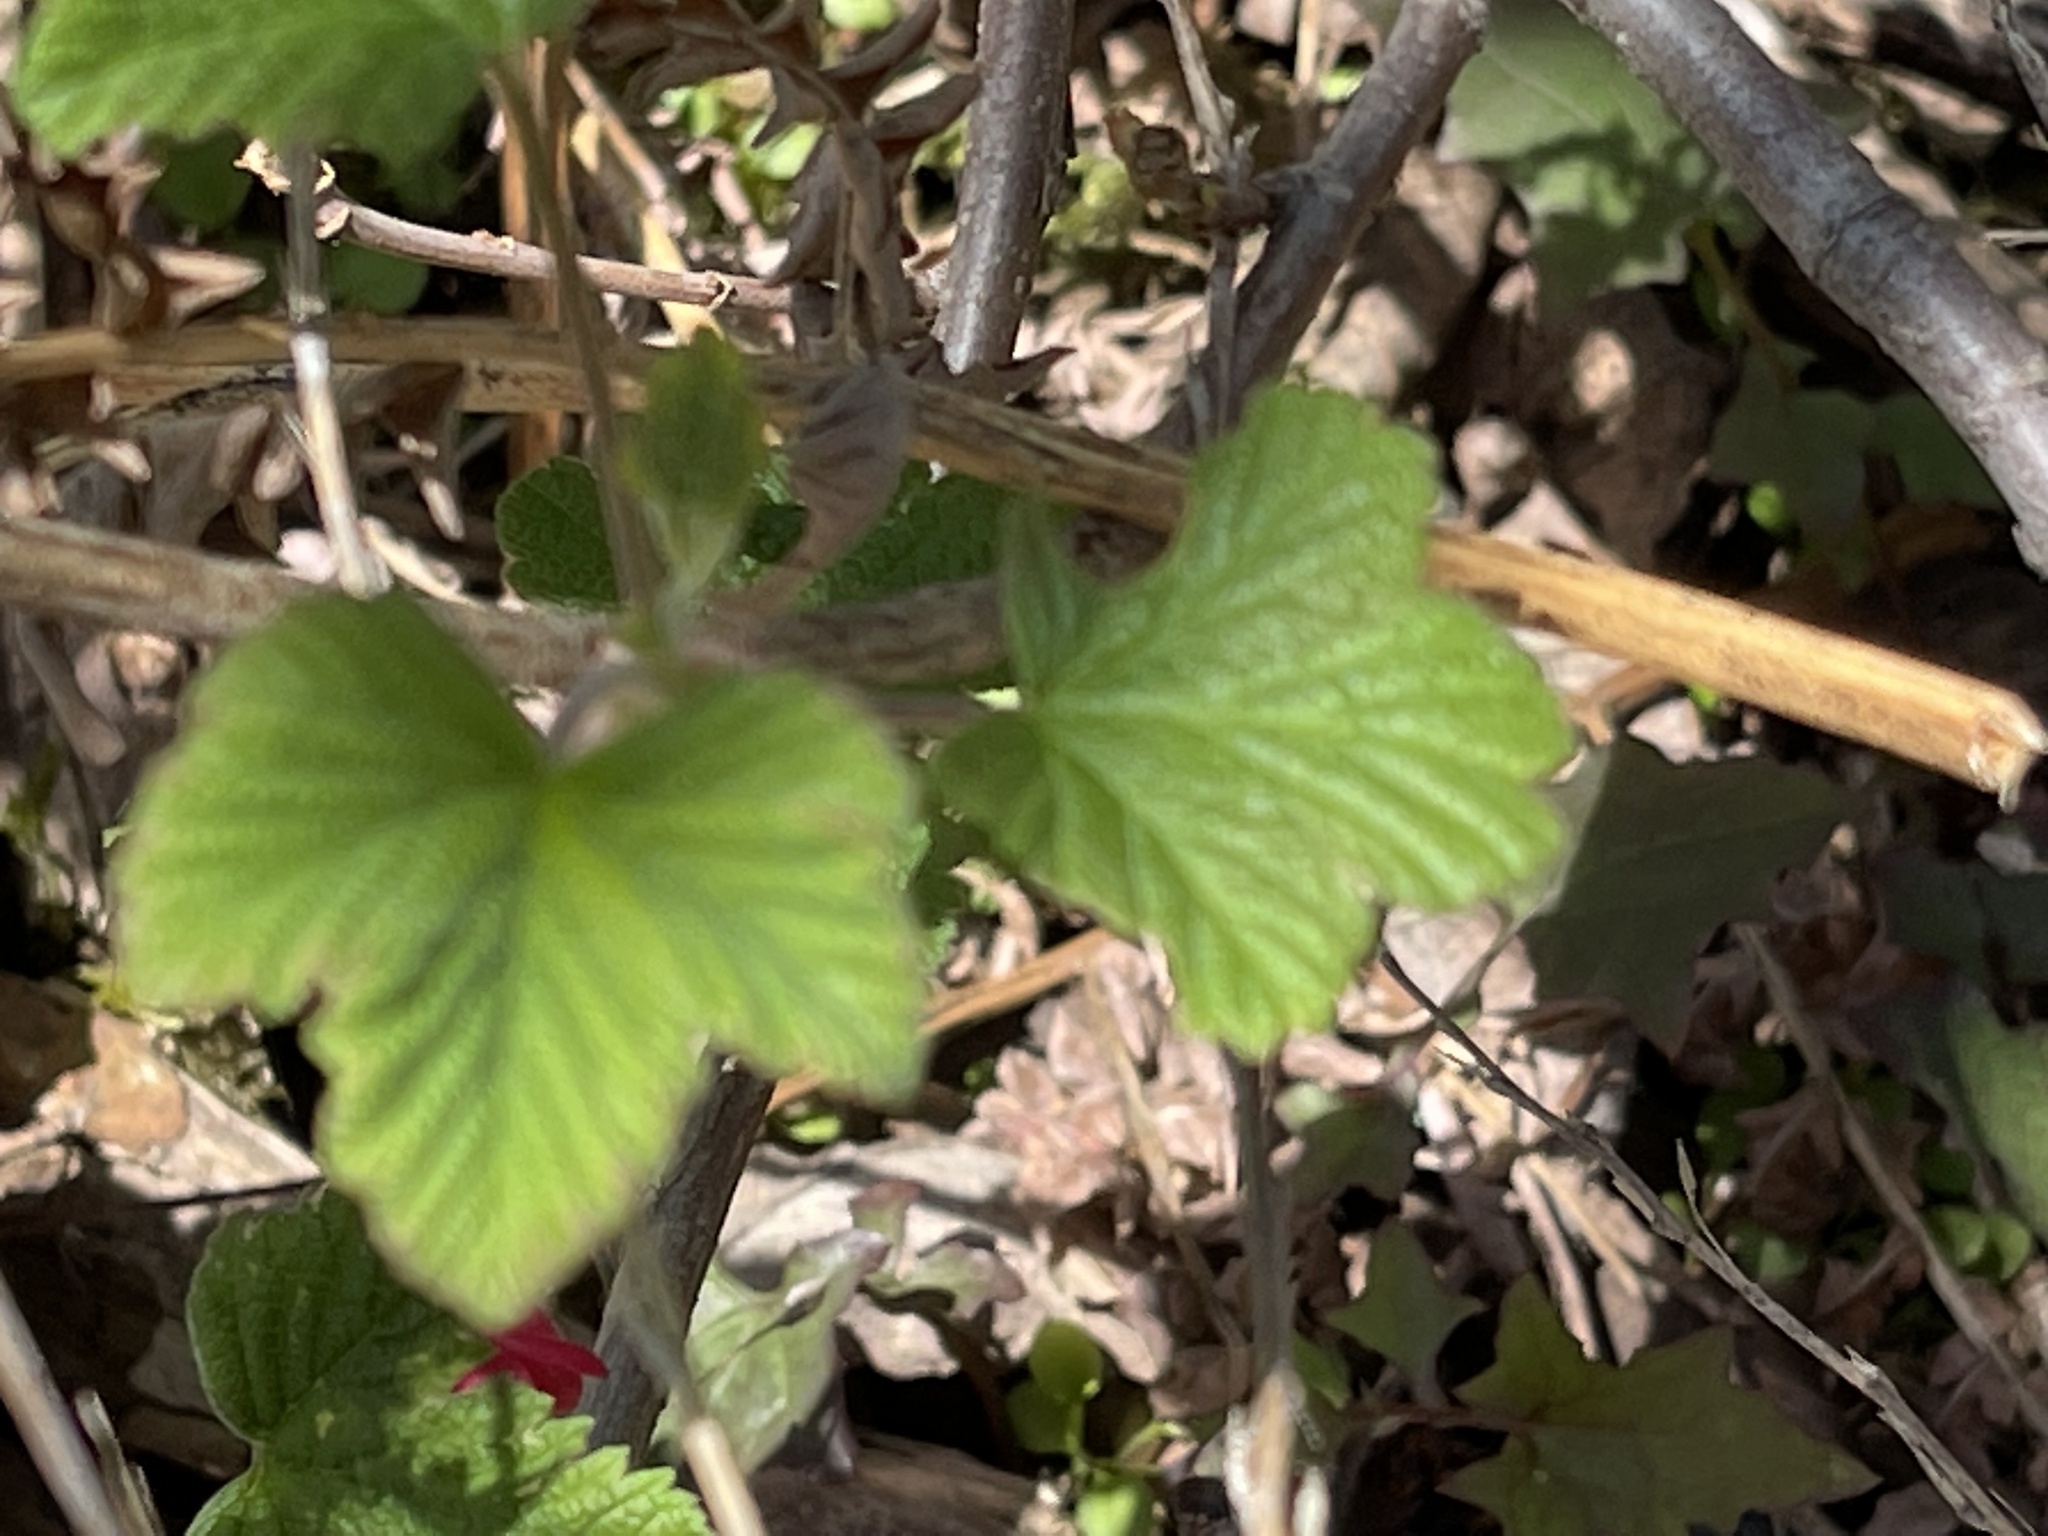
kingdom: Plantae
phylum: Tracheophyta
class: Magnoliopsida
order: Saxifragales
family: Grossulariaceae
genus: Ribes
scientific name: Ribes sanguineum
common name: Flowering currant
